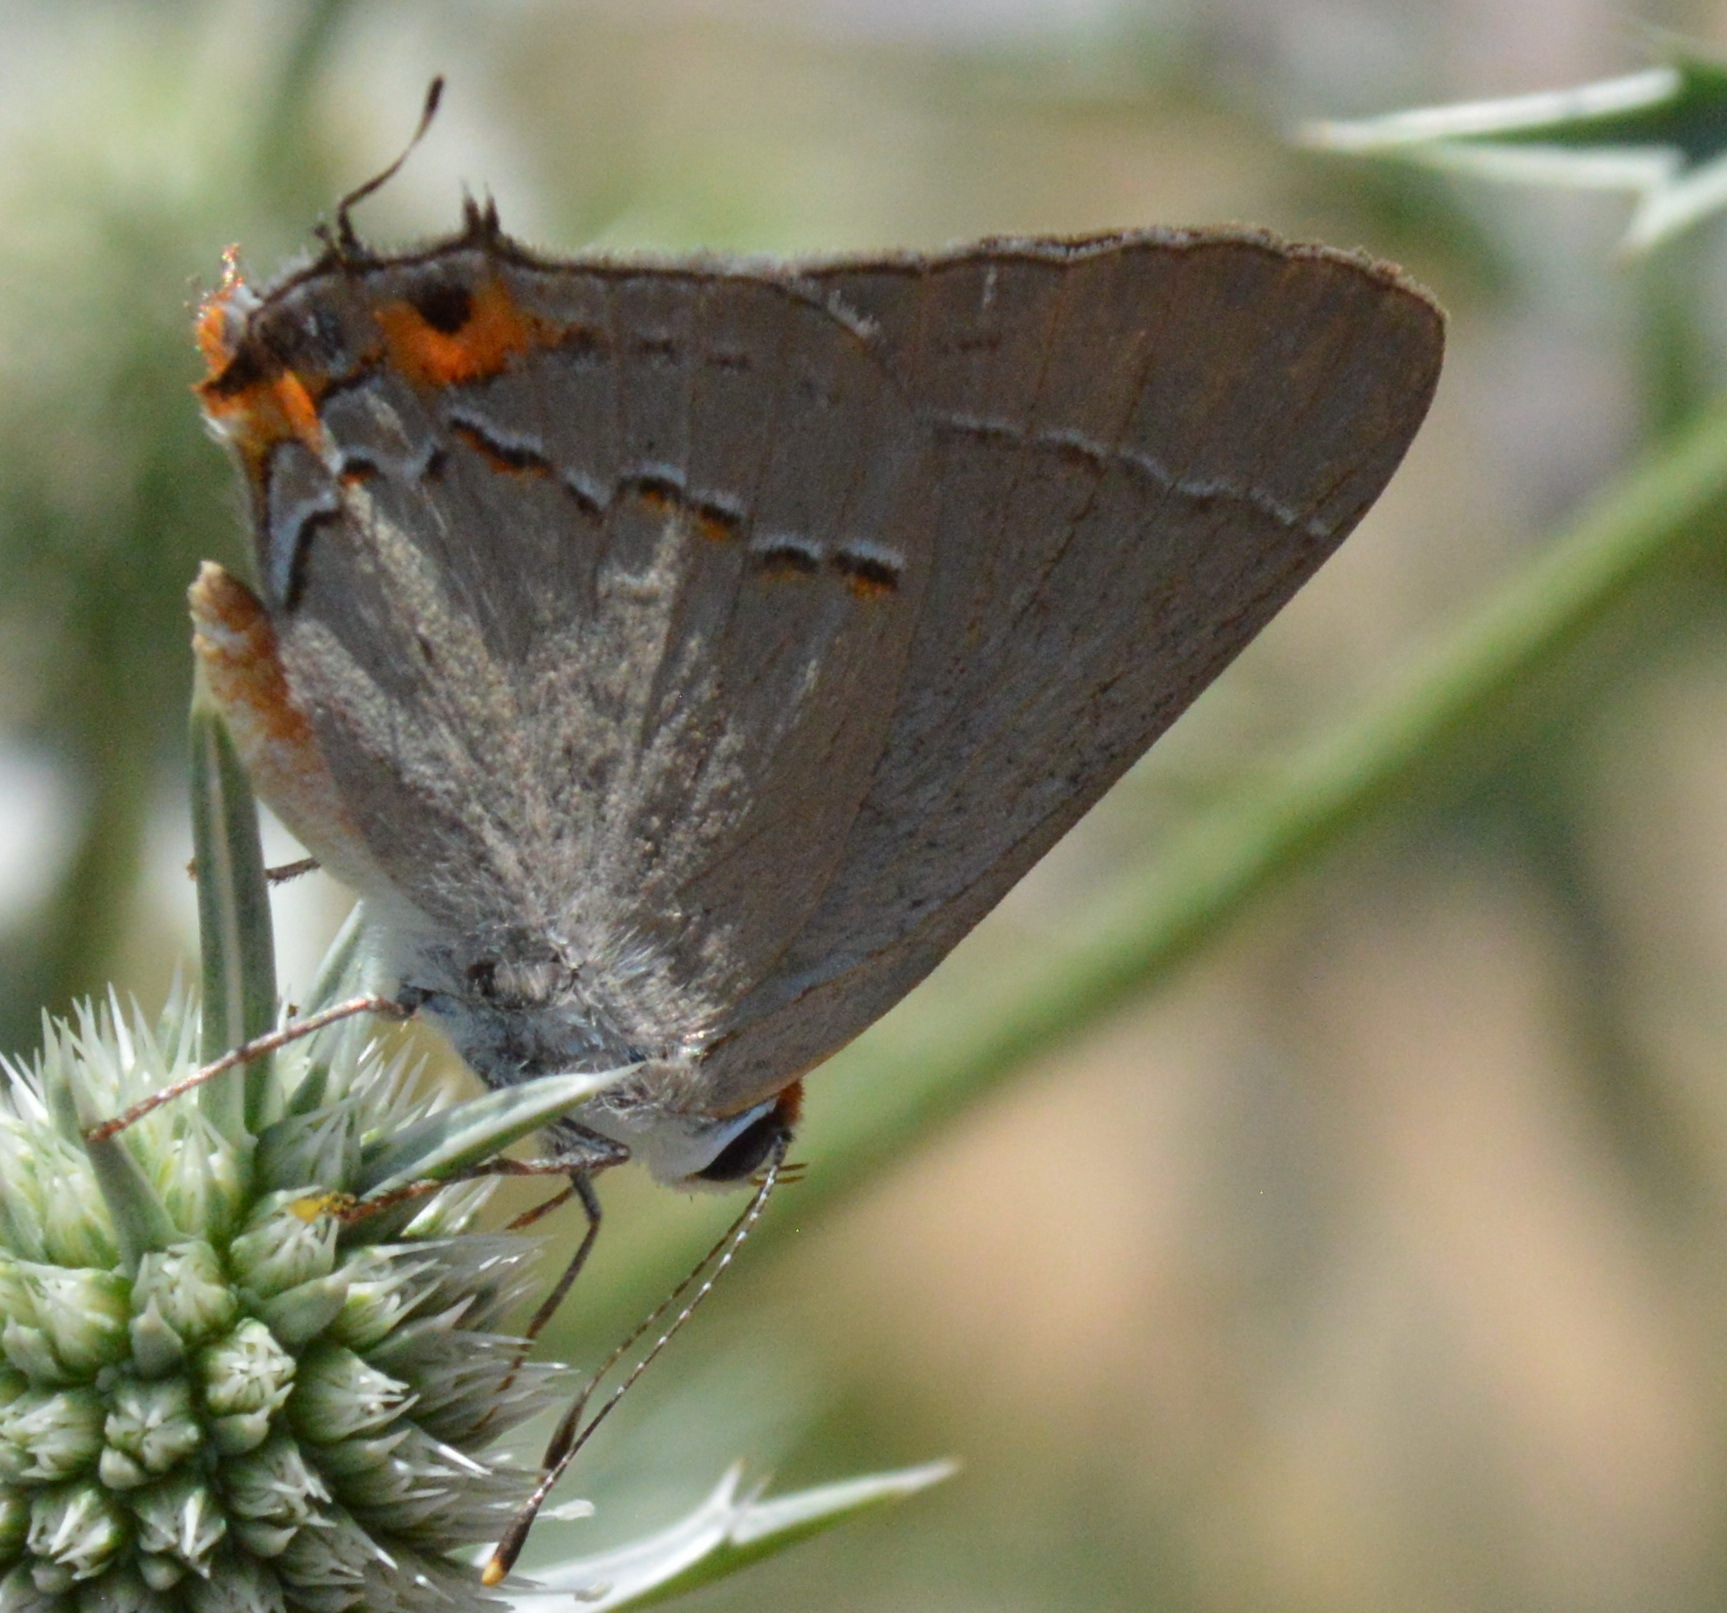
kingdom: Animalia
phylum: Arthropoda
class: Insecta
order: Lepidoptera
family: Lycaenidae
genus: Strymon
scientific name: Strymon melinus
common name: Gray hairstreak
